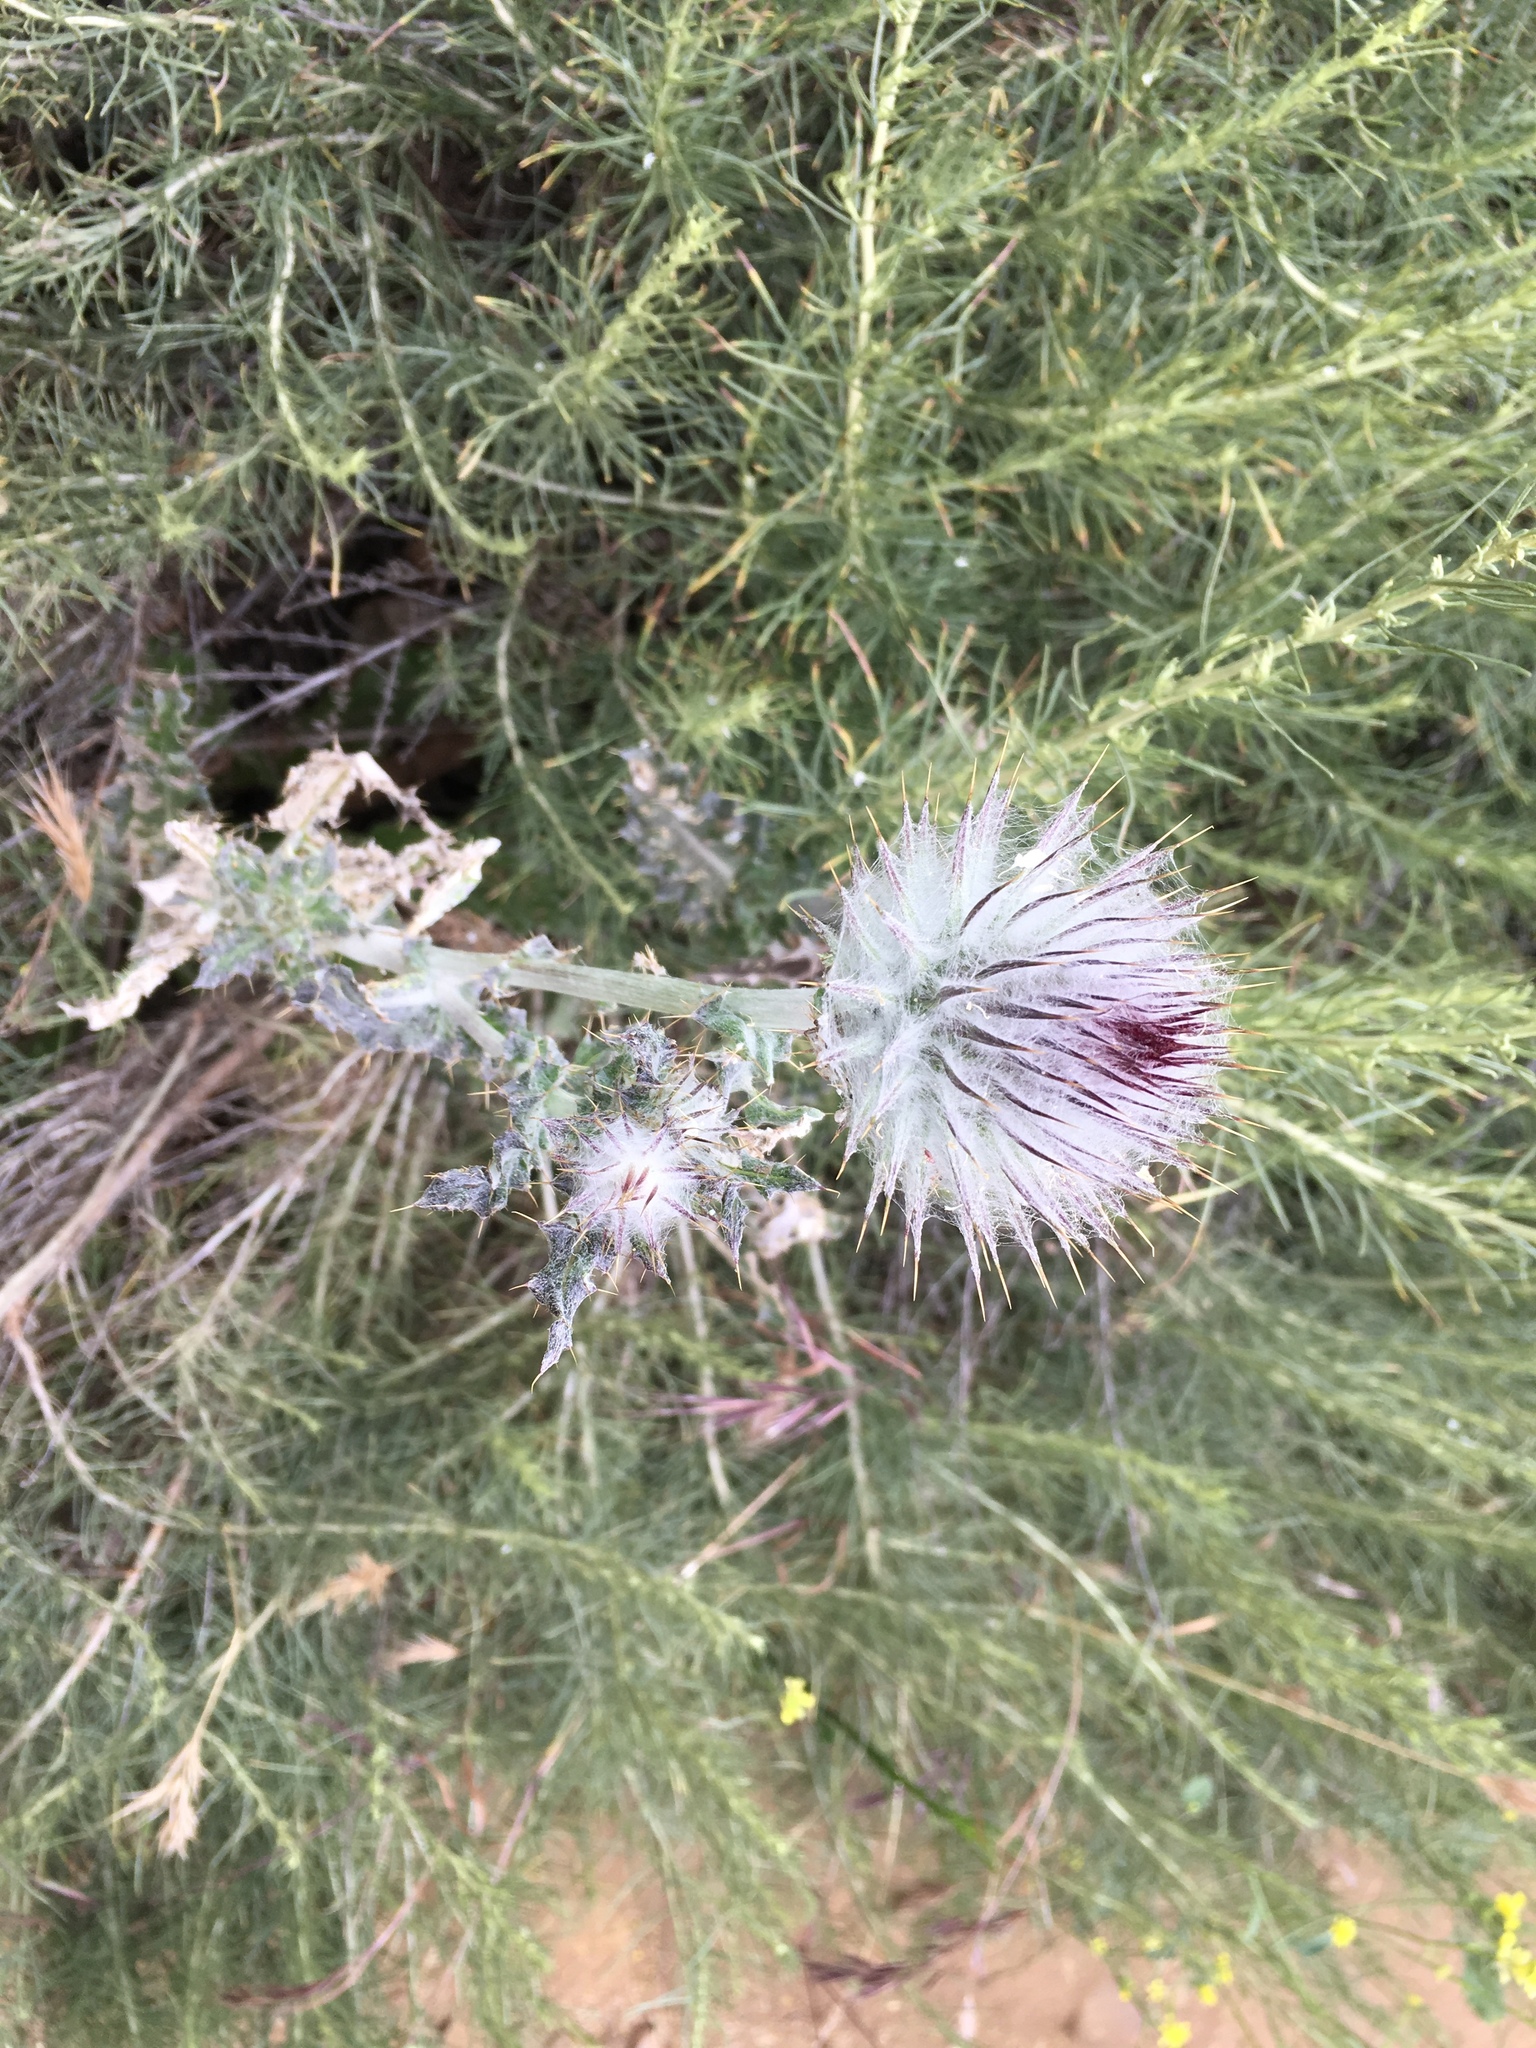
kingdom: Plantae
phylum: Tracheophyta
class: Magnoliopsida
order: Asterales
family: Asteraceae
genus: Cirsium
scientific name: Cirsium occidentale
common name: Western thistle
